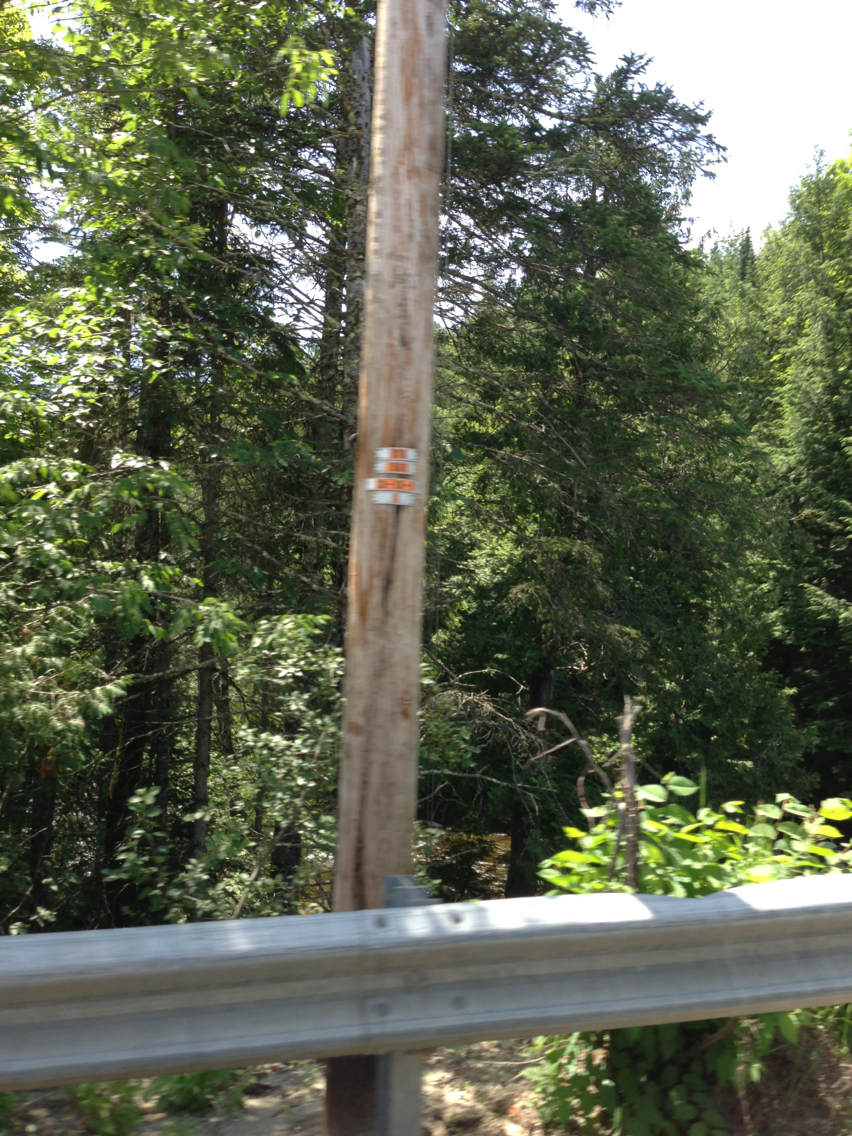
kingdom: Plantae
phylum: Tracheophyta
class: Pinopsida
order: Pinales
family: Cupressaceae
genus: Thuja
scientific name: Thuja occidentalis
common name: Northern white-cedar
